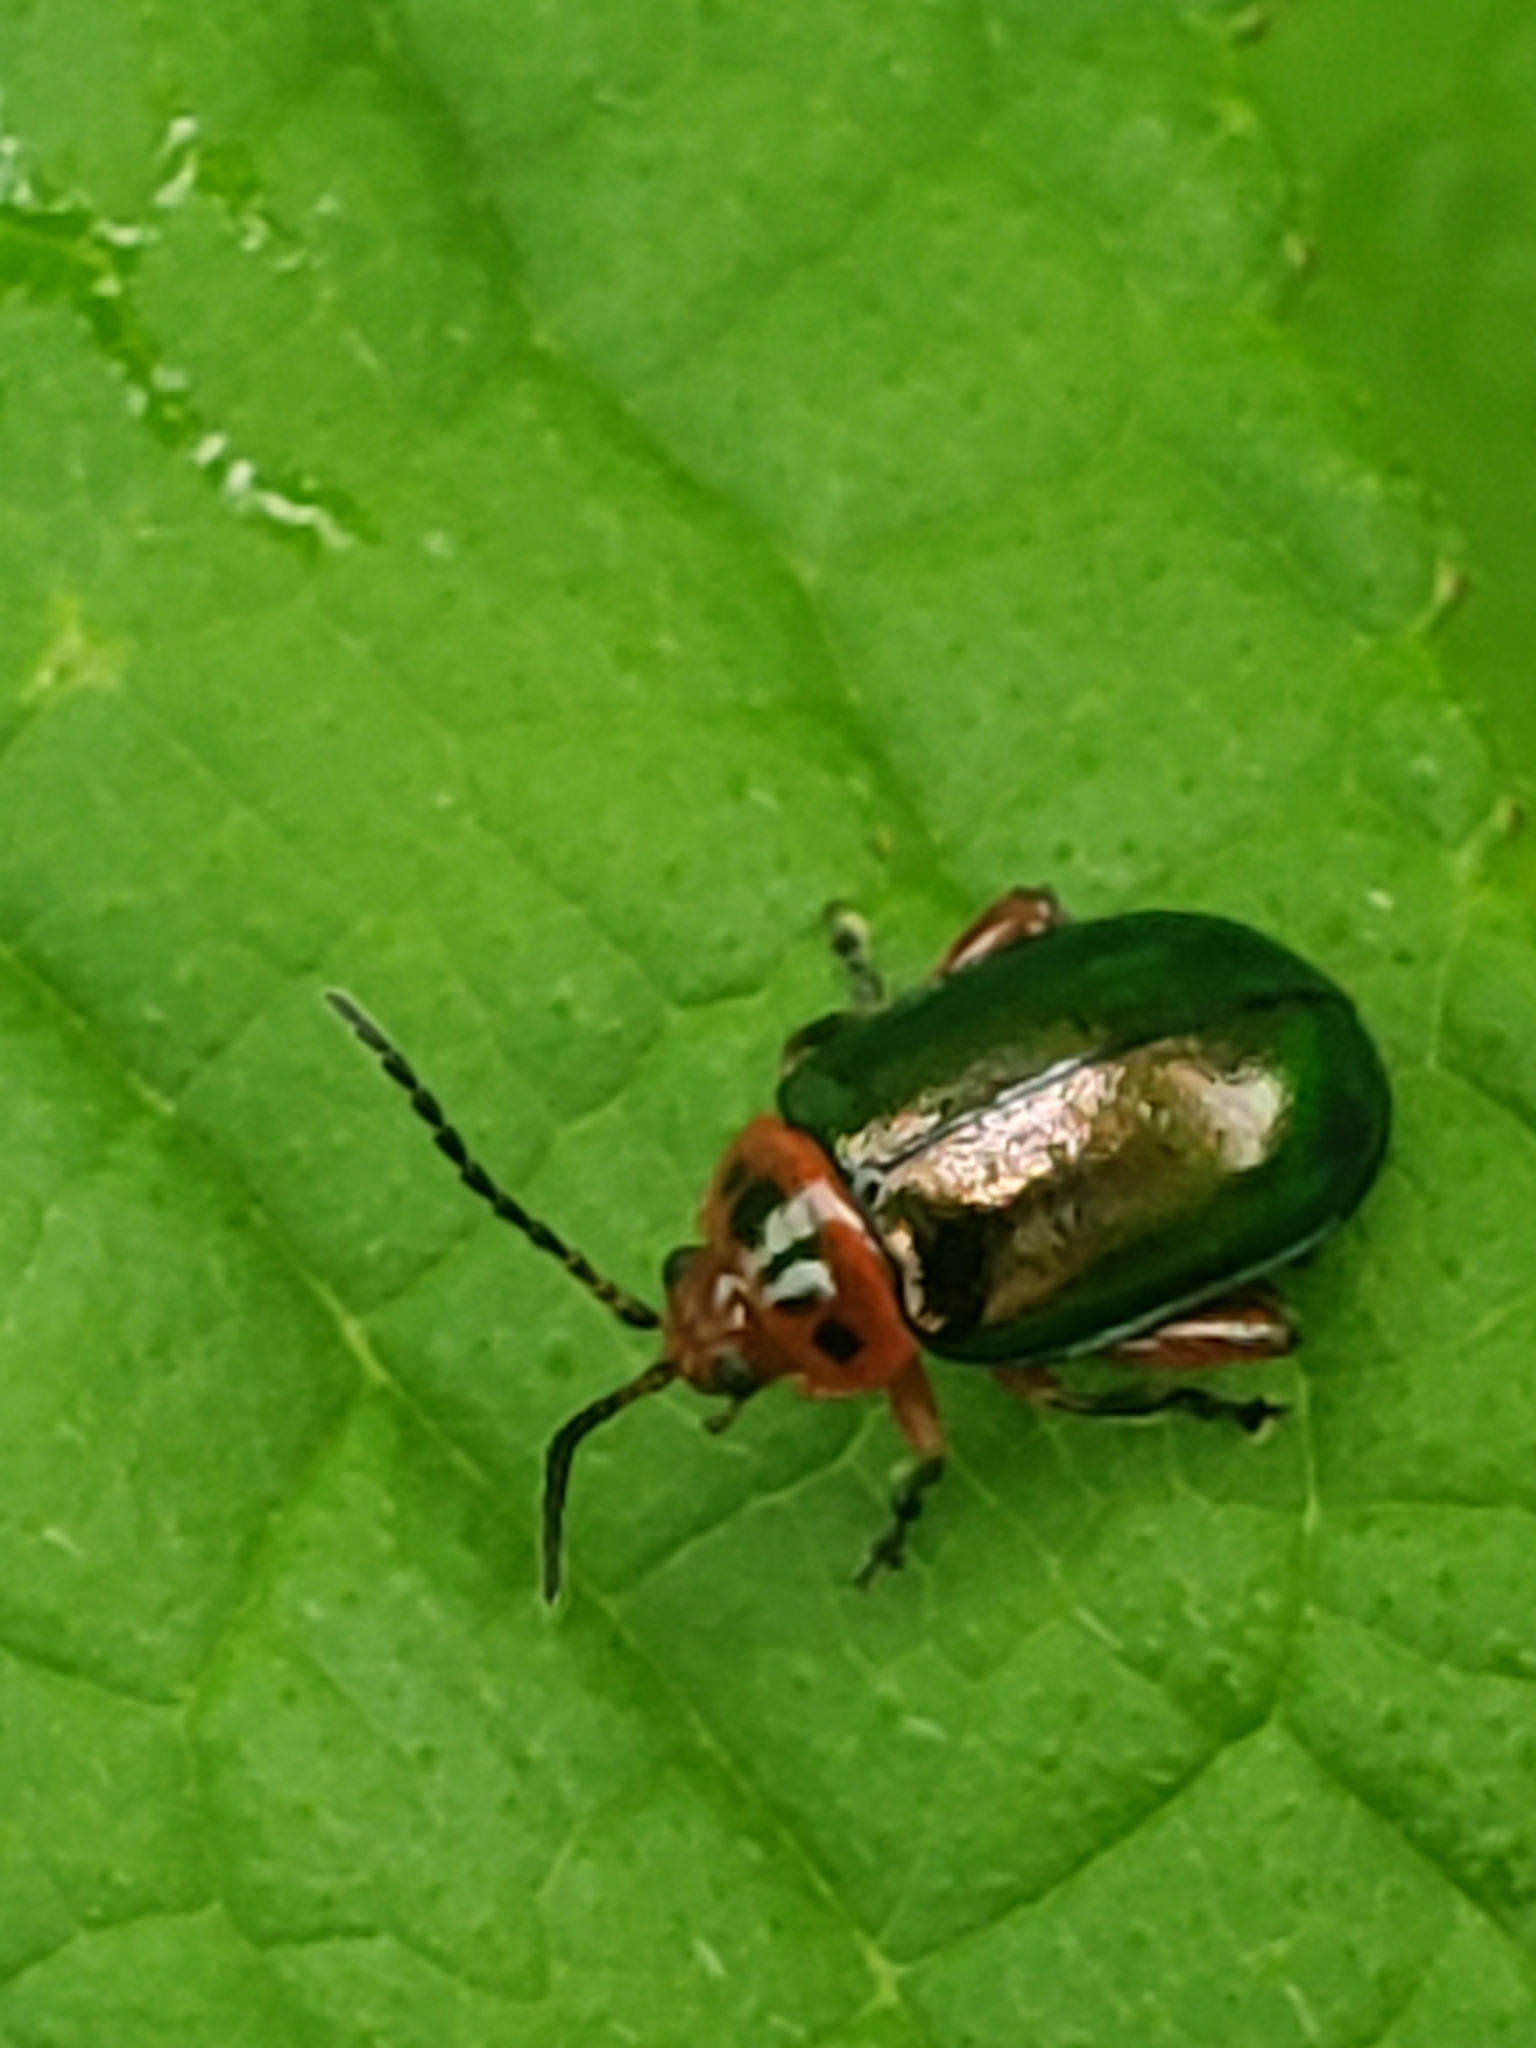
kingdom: Animalia
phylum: Arthropoda
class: Insecta
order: Coleoptera
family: Chrysomelidae
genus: Kuschelina
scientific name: Kuschelina gibbitarsa
